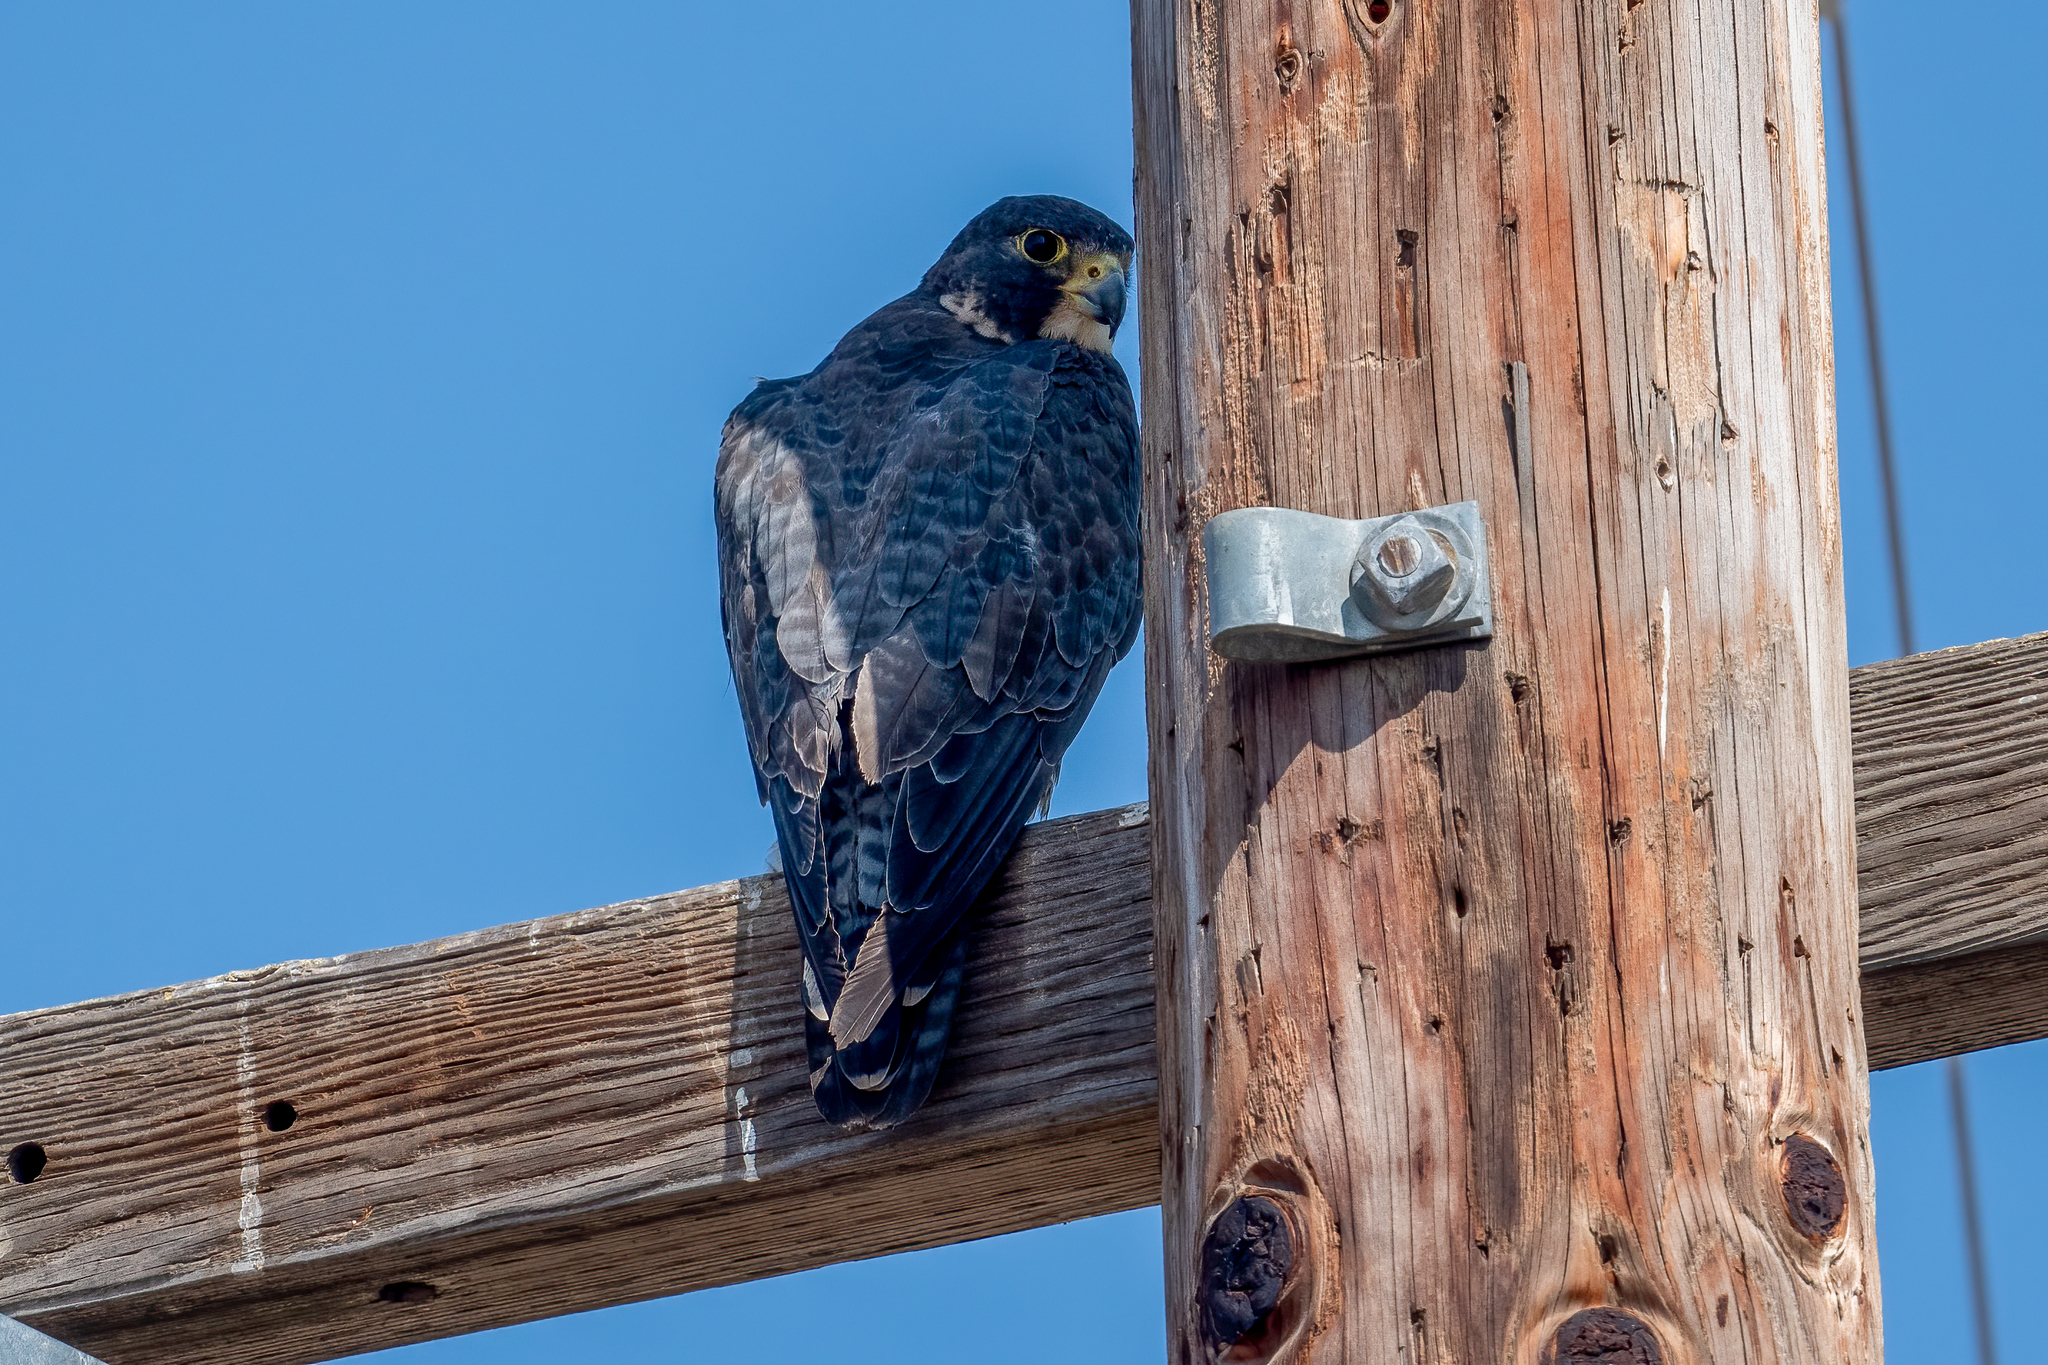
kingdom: Animalia
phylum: Chordata
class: Aves
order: Falconiformes
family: Falconidae
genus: Falco
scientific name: Falco peregrinus
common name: Peregrine falcon
